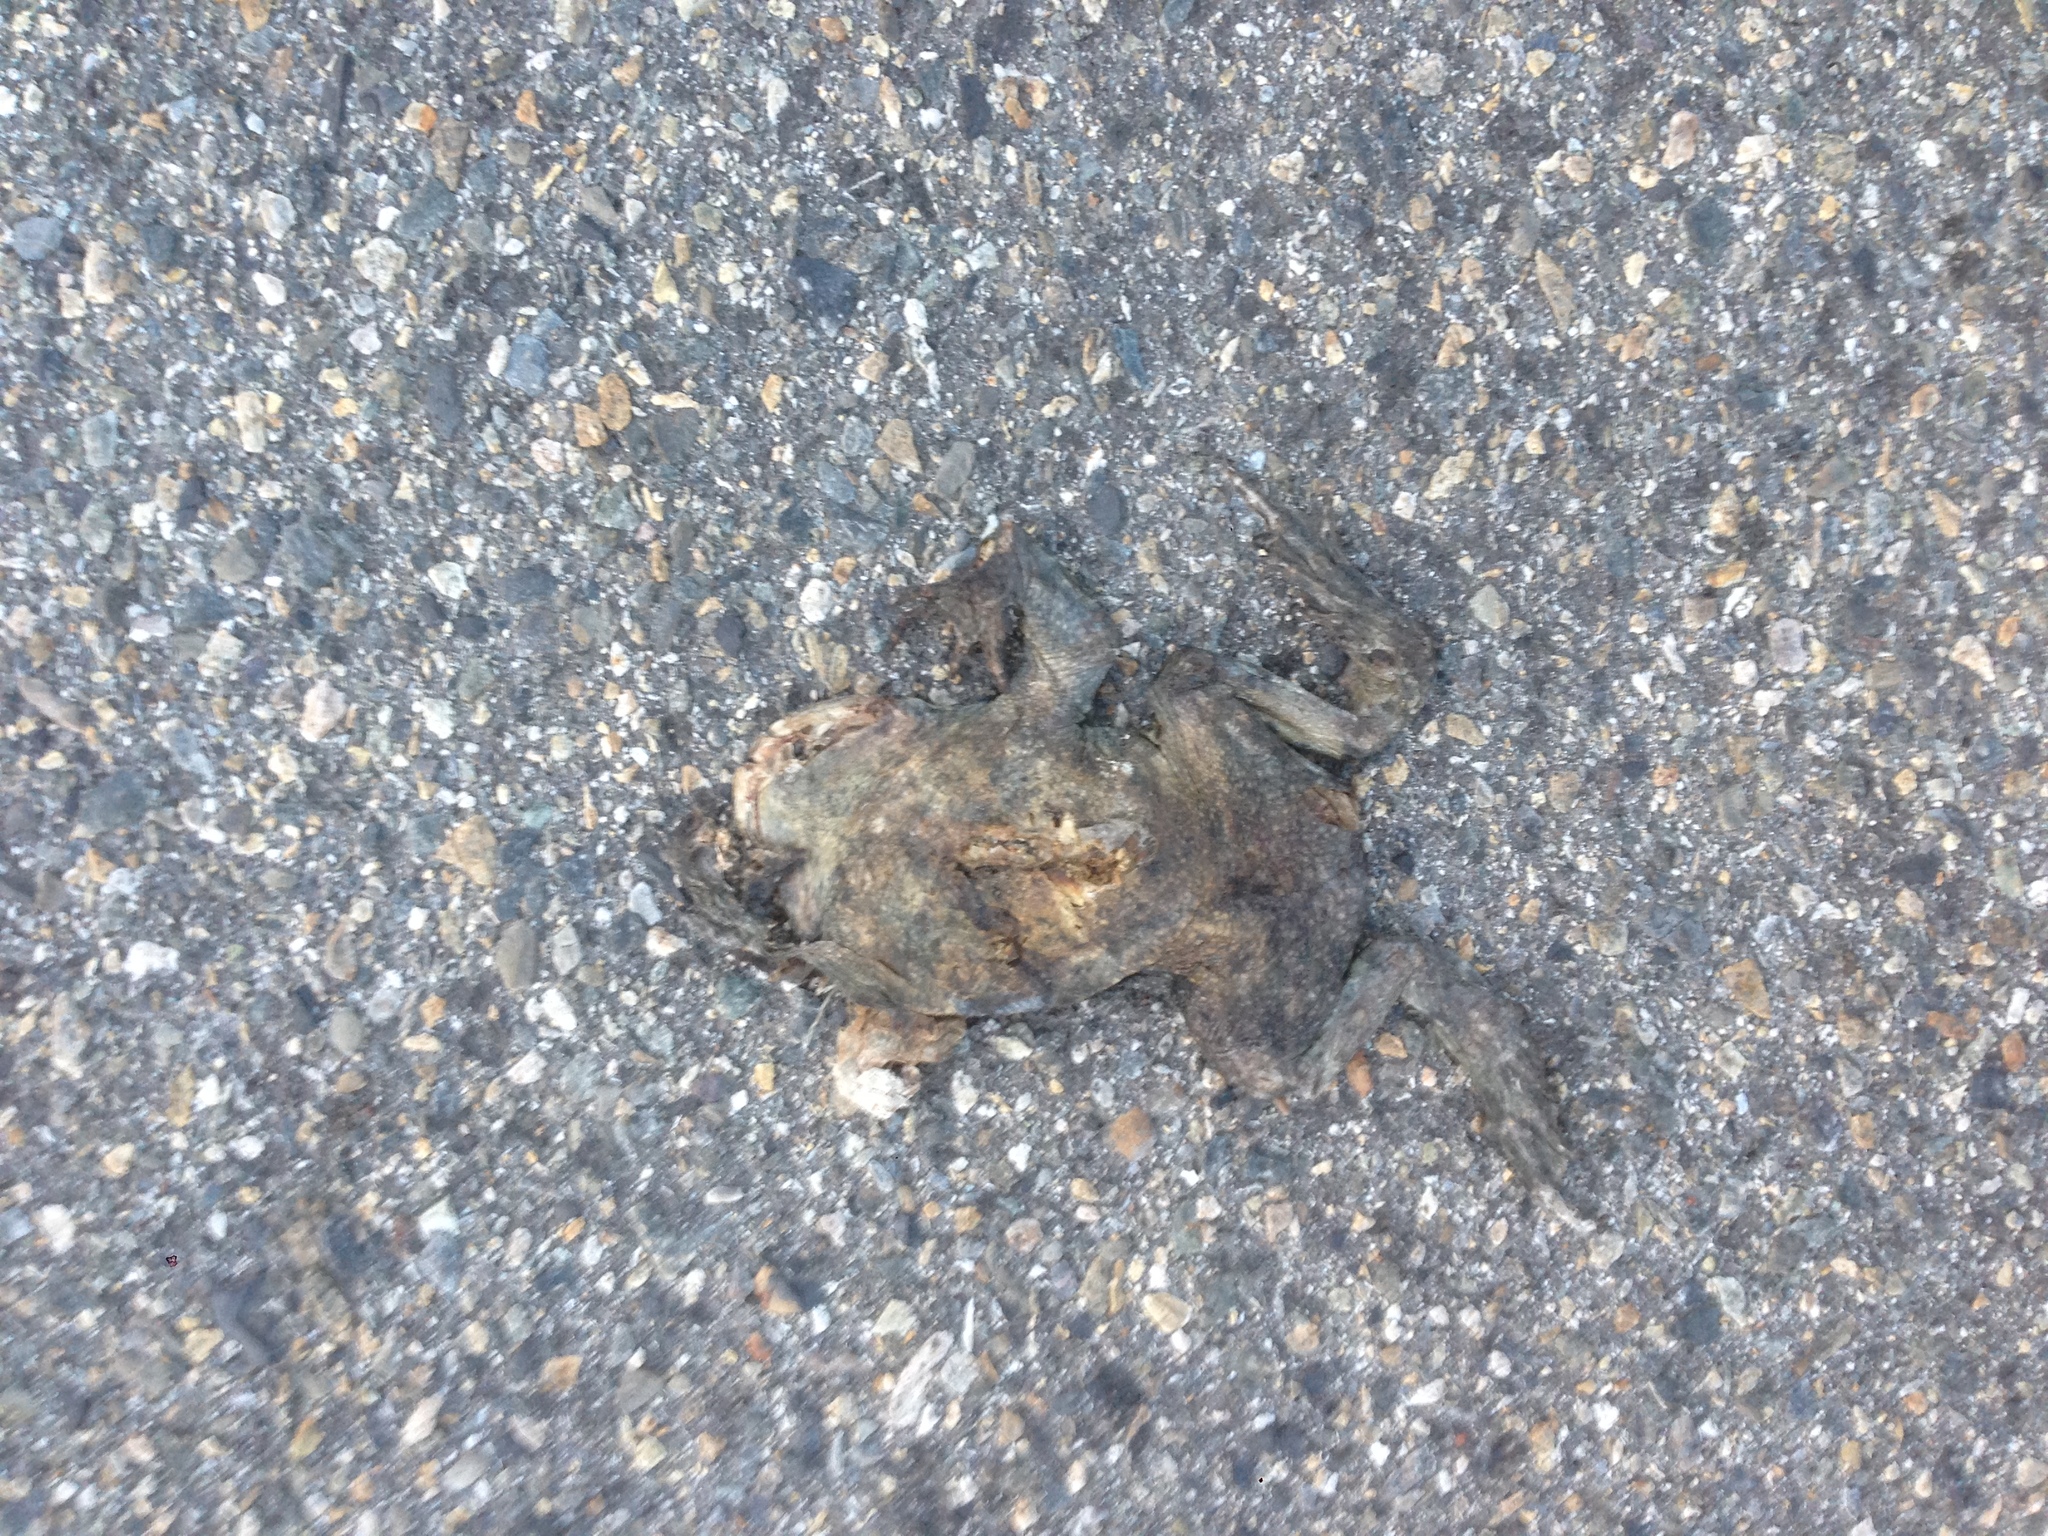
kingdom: Animalia
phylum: Chordata
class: Amphibia
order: Anura
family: Bufonidae
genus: Anaxyrus
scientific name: Anaxyrus boreas
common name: Western toad
